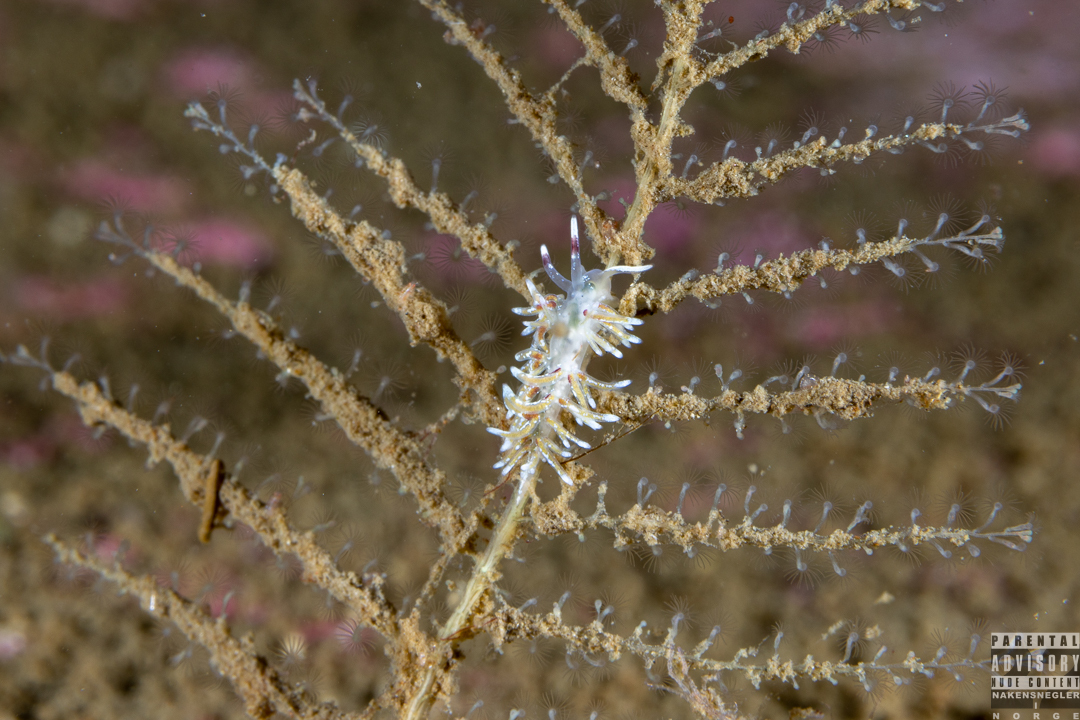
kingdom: Animalia
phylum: Mollusca
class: Gastropoda
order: Nudibranchia
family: Trinchesiidae
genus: Rubramoena
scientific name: Rubramoena rubescens
